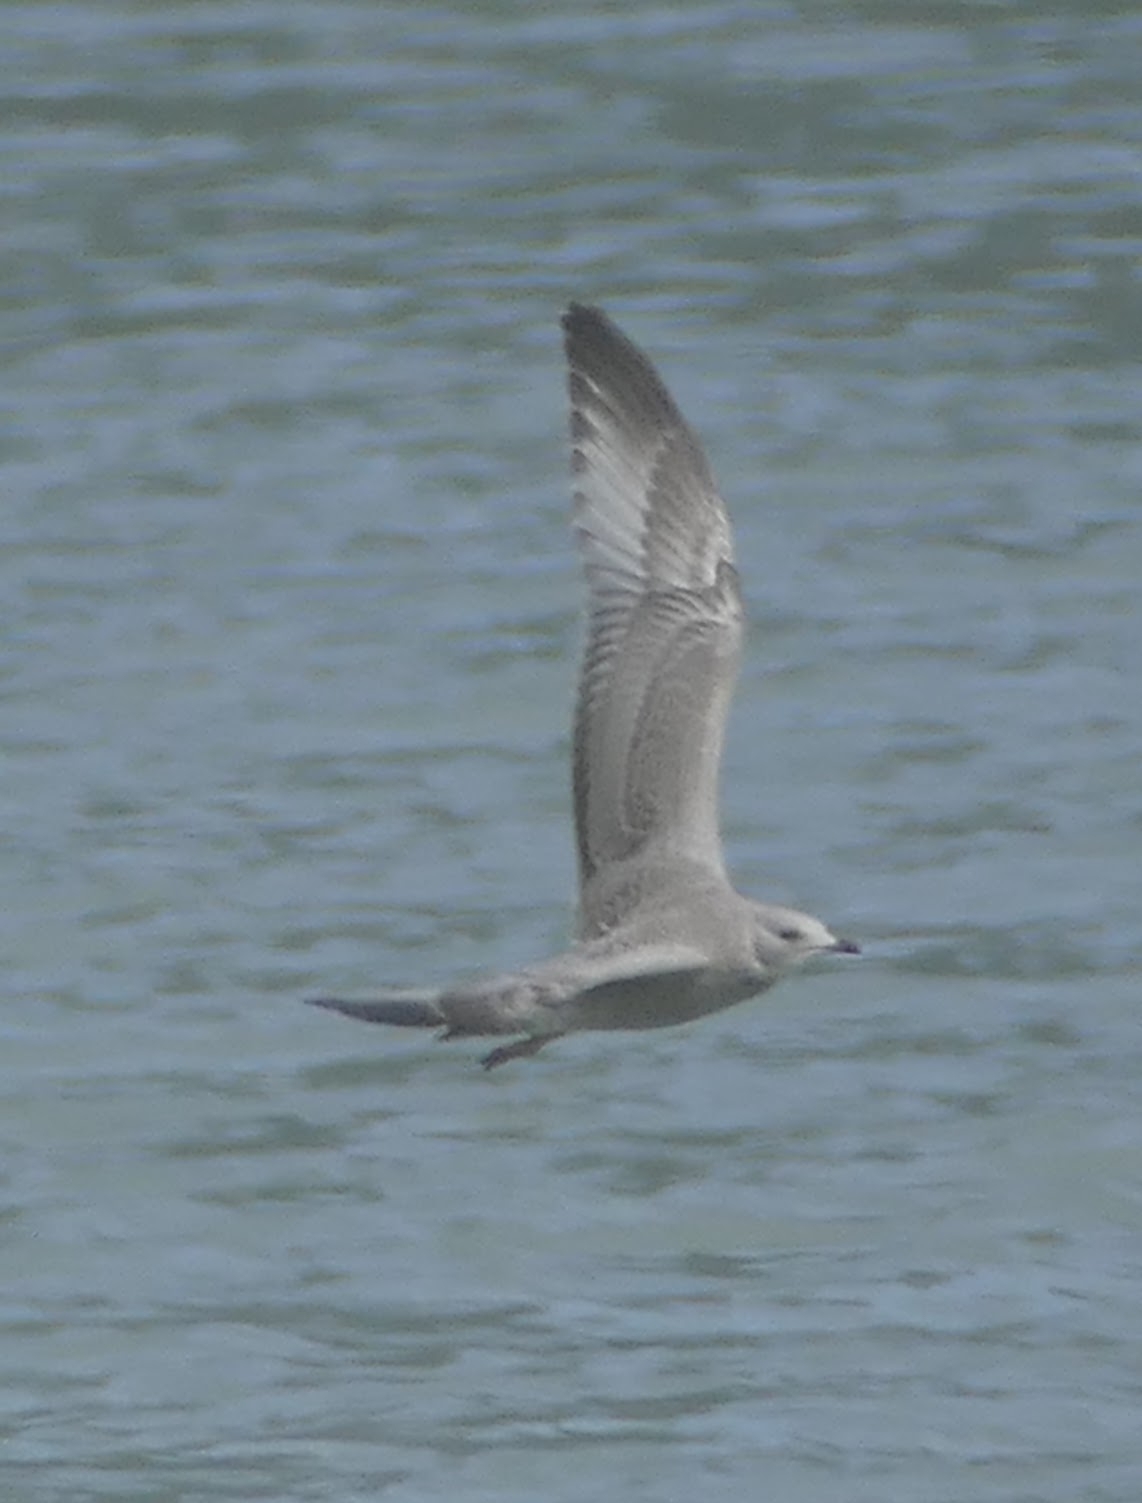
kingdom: Animalia
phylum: Chordata
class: Aves
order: Charadriiformes
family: Laridae
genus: Larus
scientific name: Larus brachyrhynchus
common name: Short-billed gull
